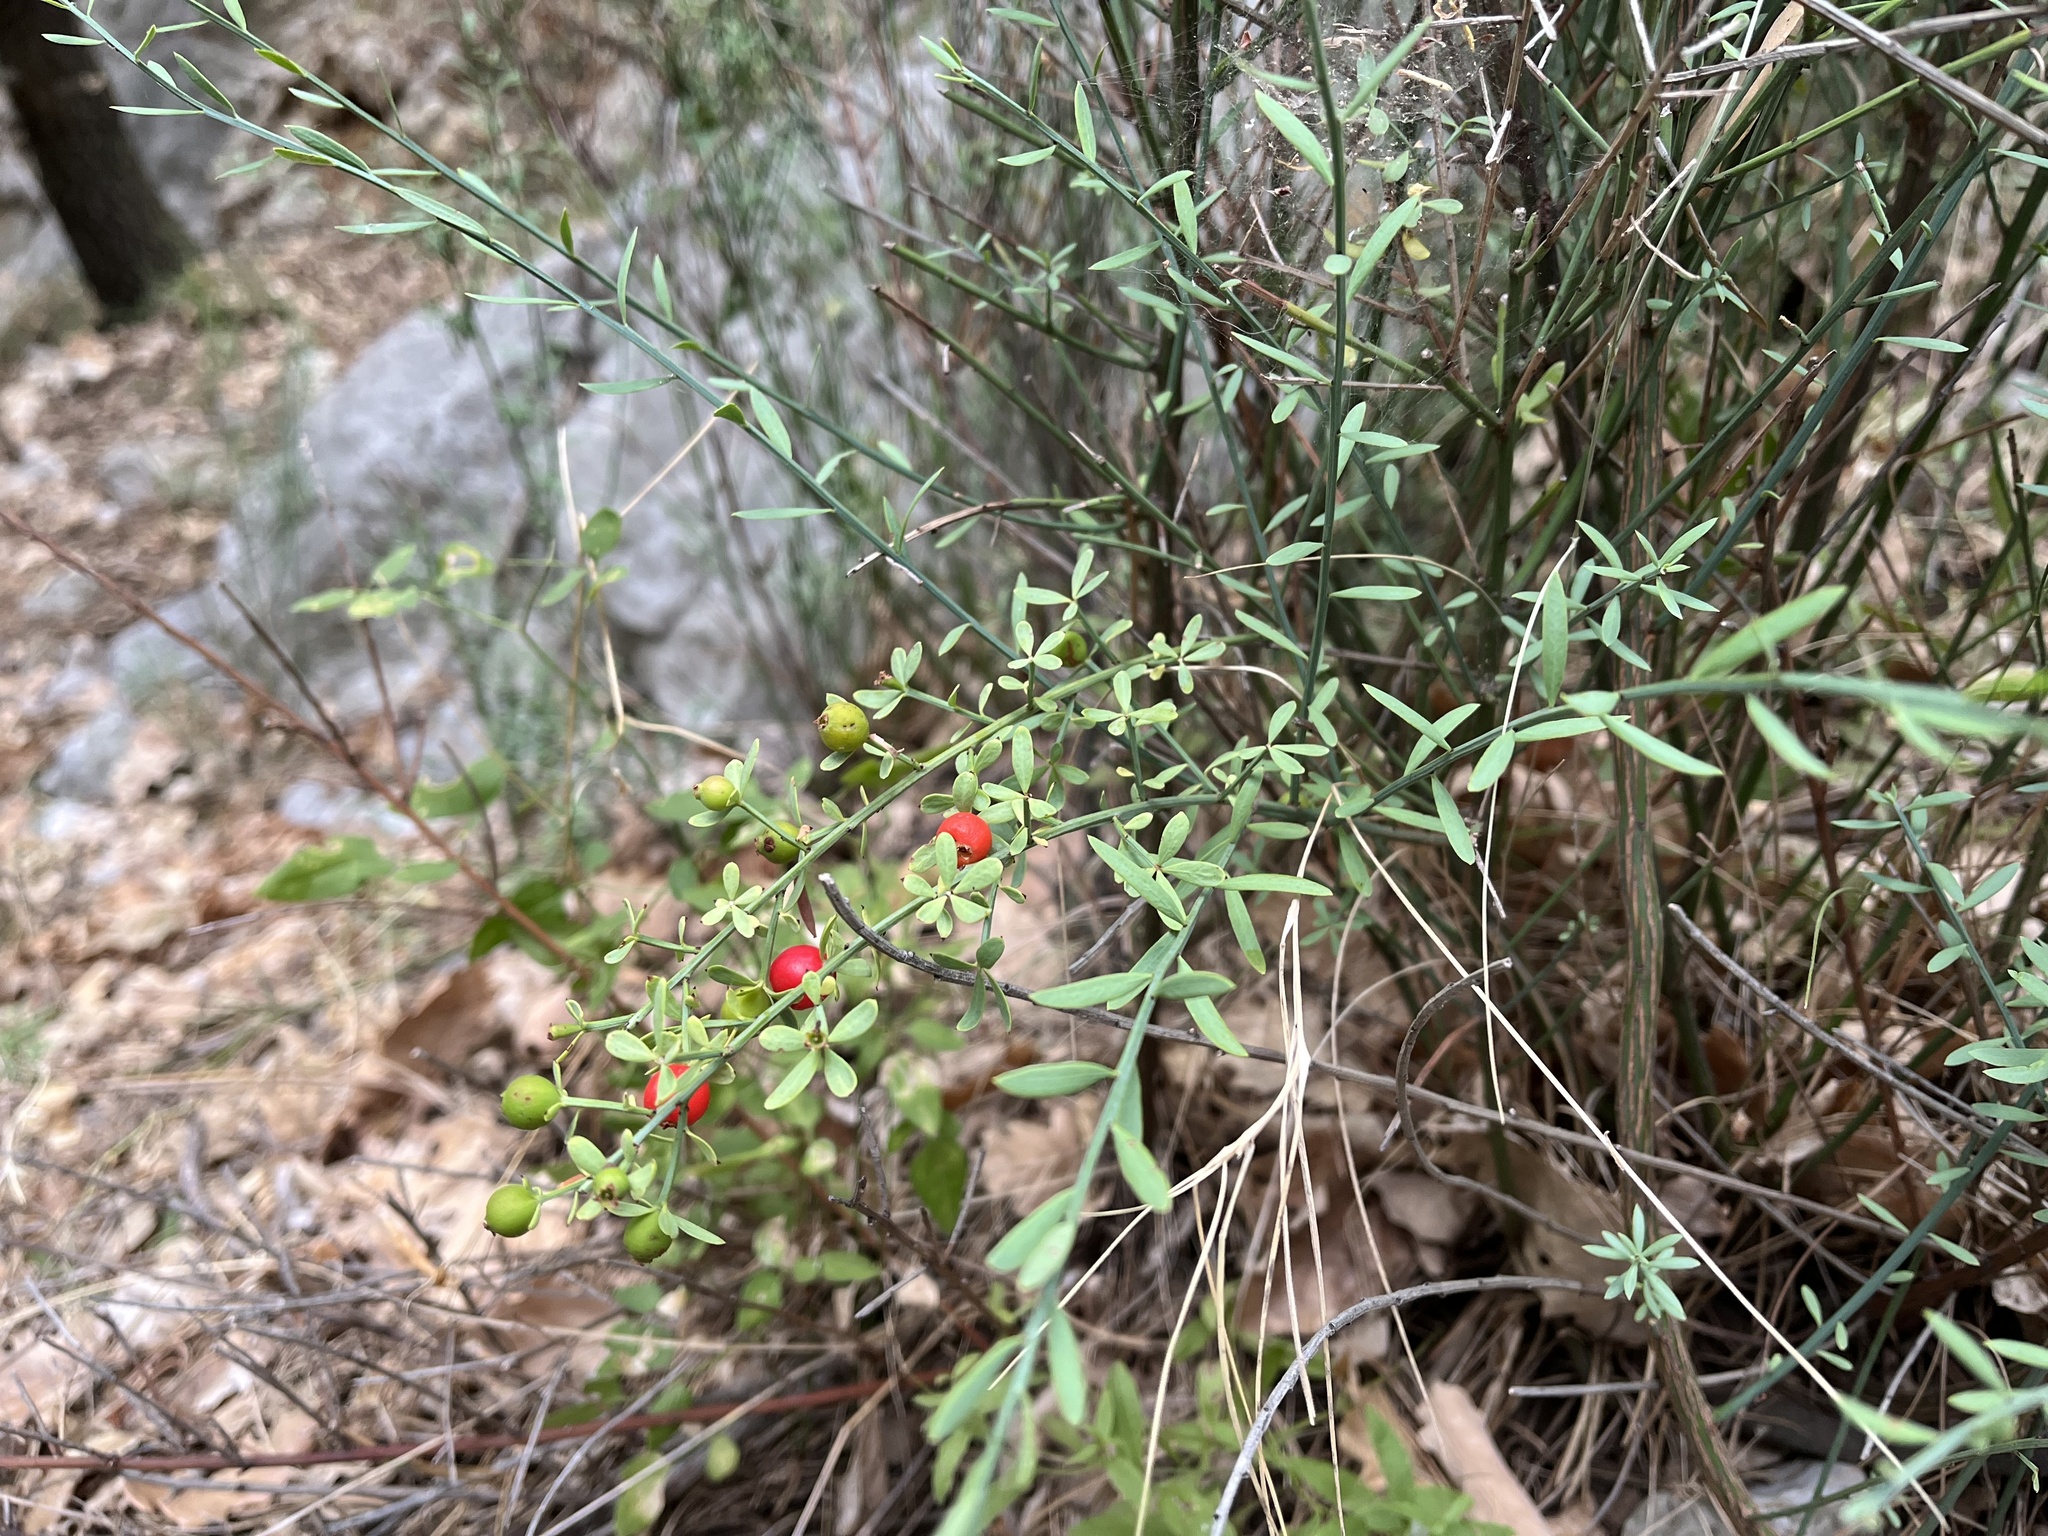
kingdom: Plantae
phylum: Tracheophyta
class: Magnoliopsida
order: Santalales
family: Santalaceae
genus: Osyris
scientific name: Osyris alba
